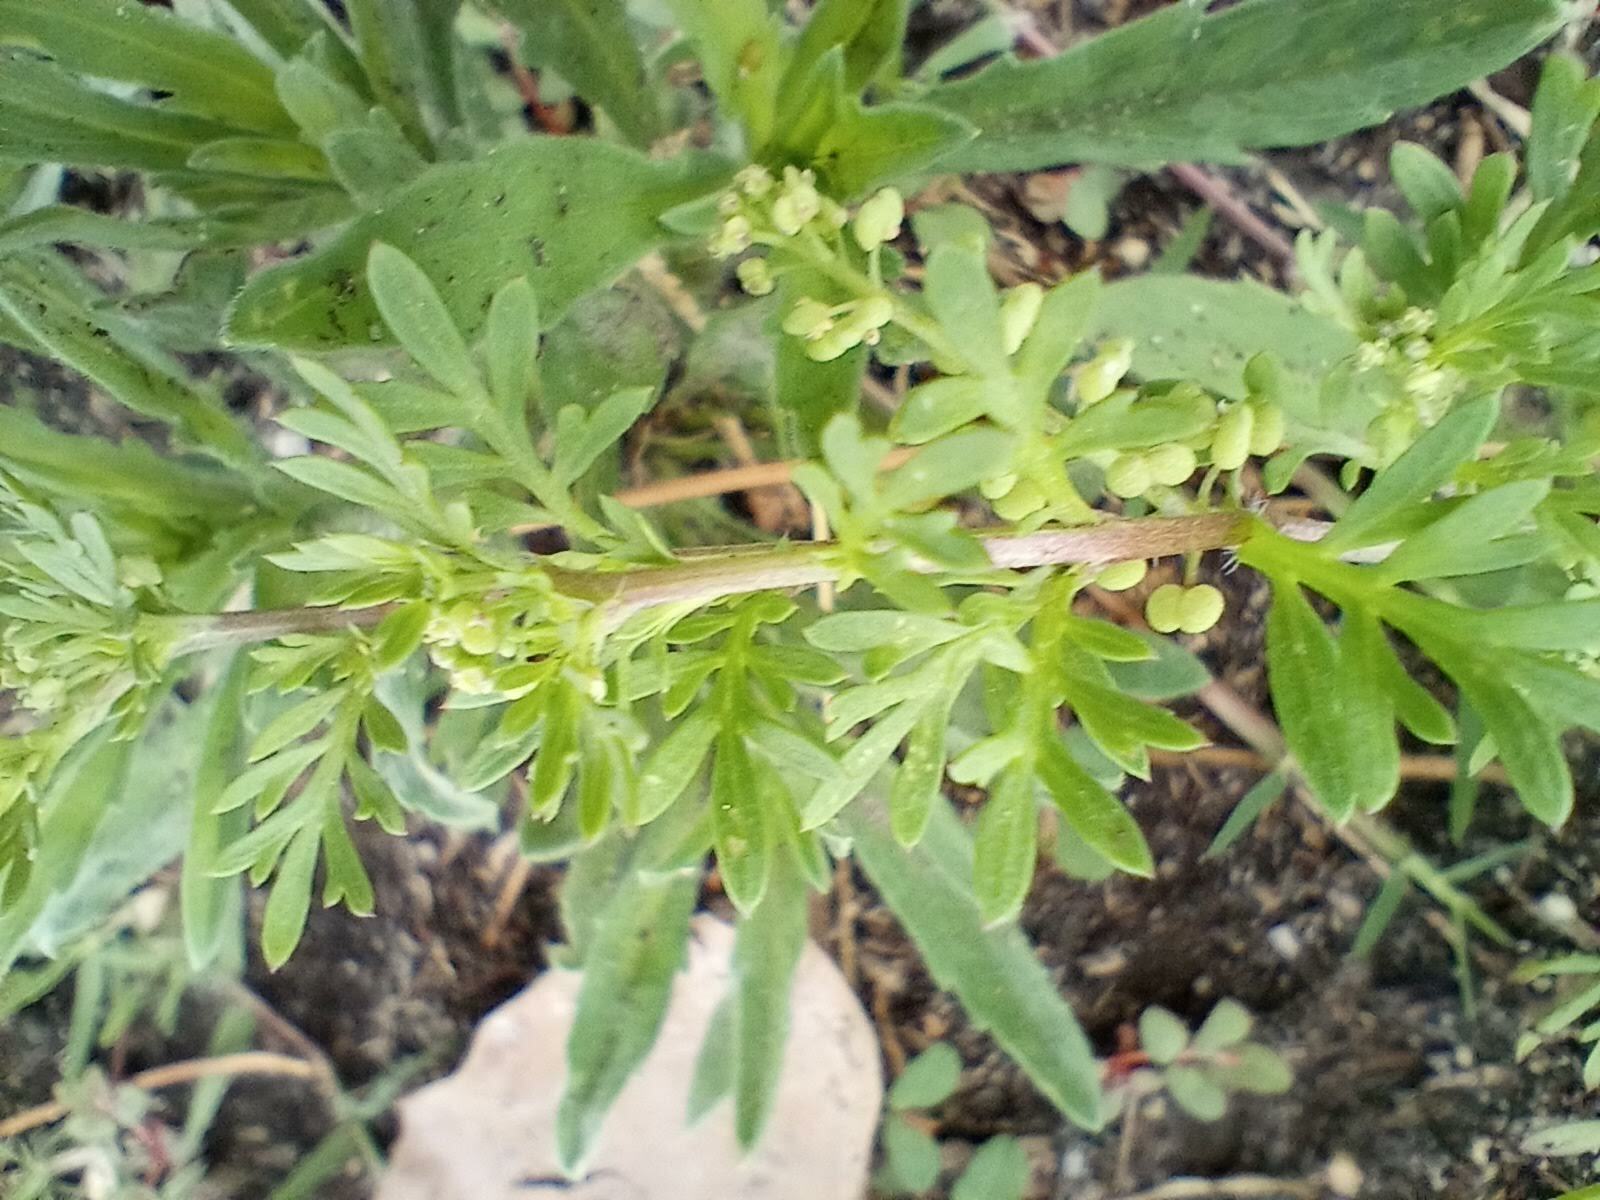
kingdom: Plantae
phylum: Tracheophyta
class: Magnoliopsida
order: Brassicales
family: Brassicaceae
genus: Lepidium
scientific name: Lepidium didymum
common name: Lesser swinecress
